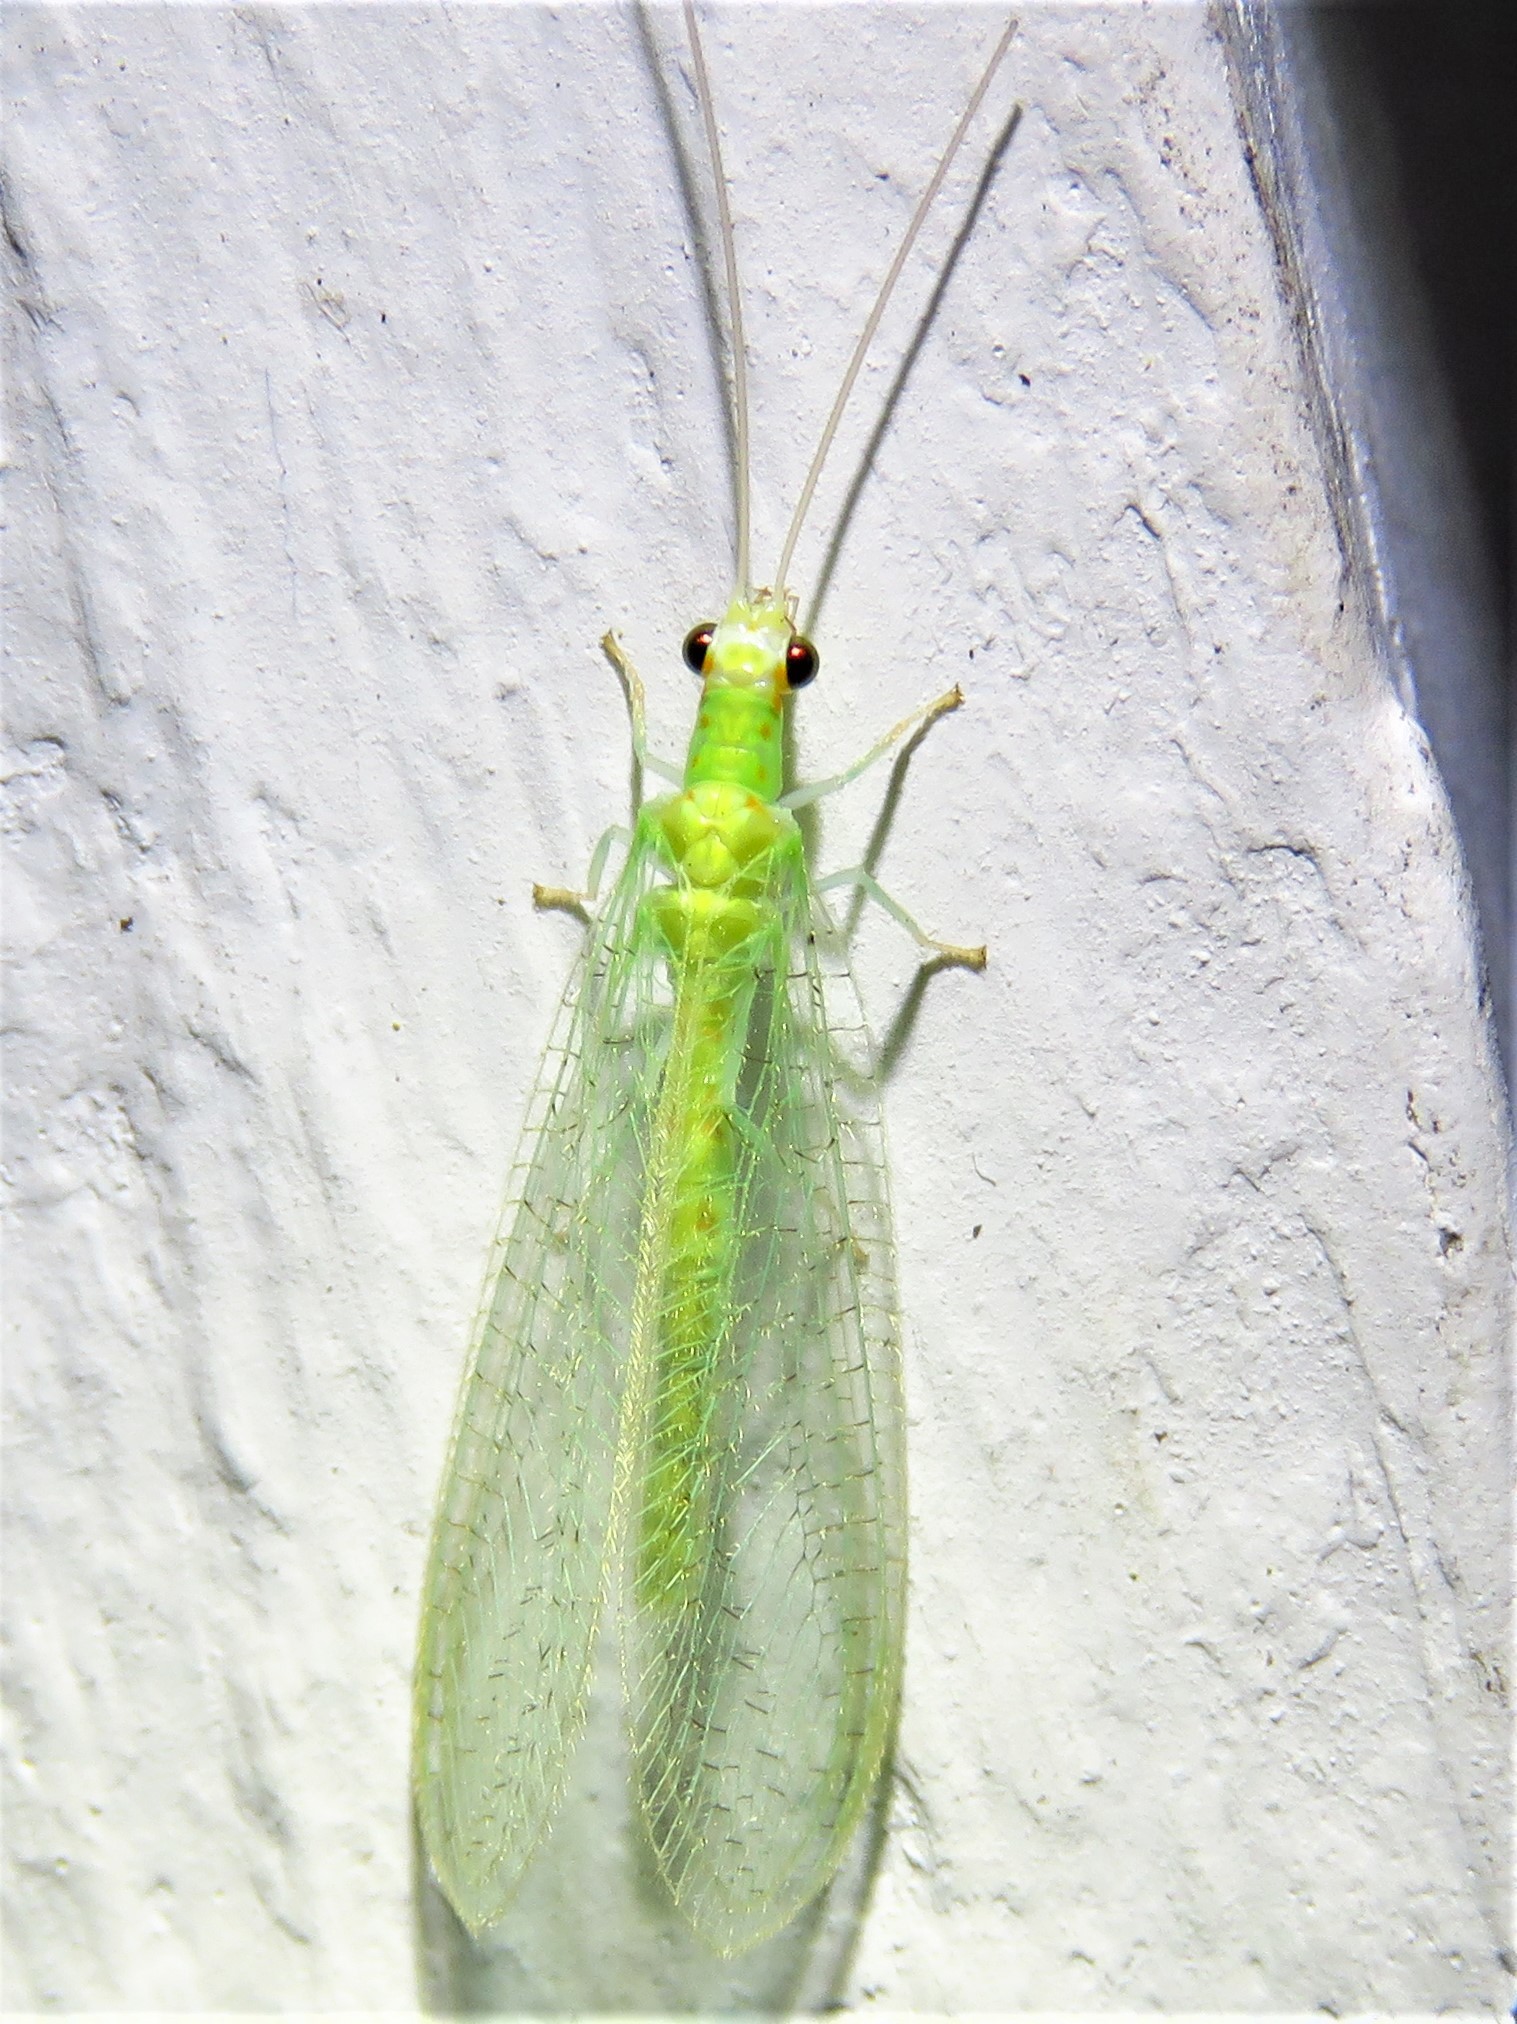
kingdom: Animalia
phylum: Arthropoda
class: Insecta
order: Neuroptera
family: Chrysopidae
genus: Chrysopa
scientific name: Chrysopa quadripunctata
